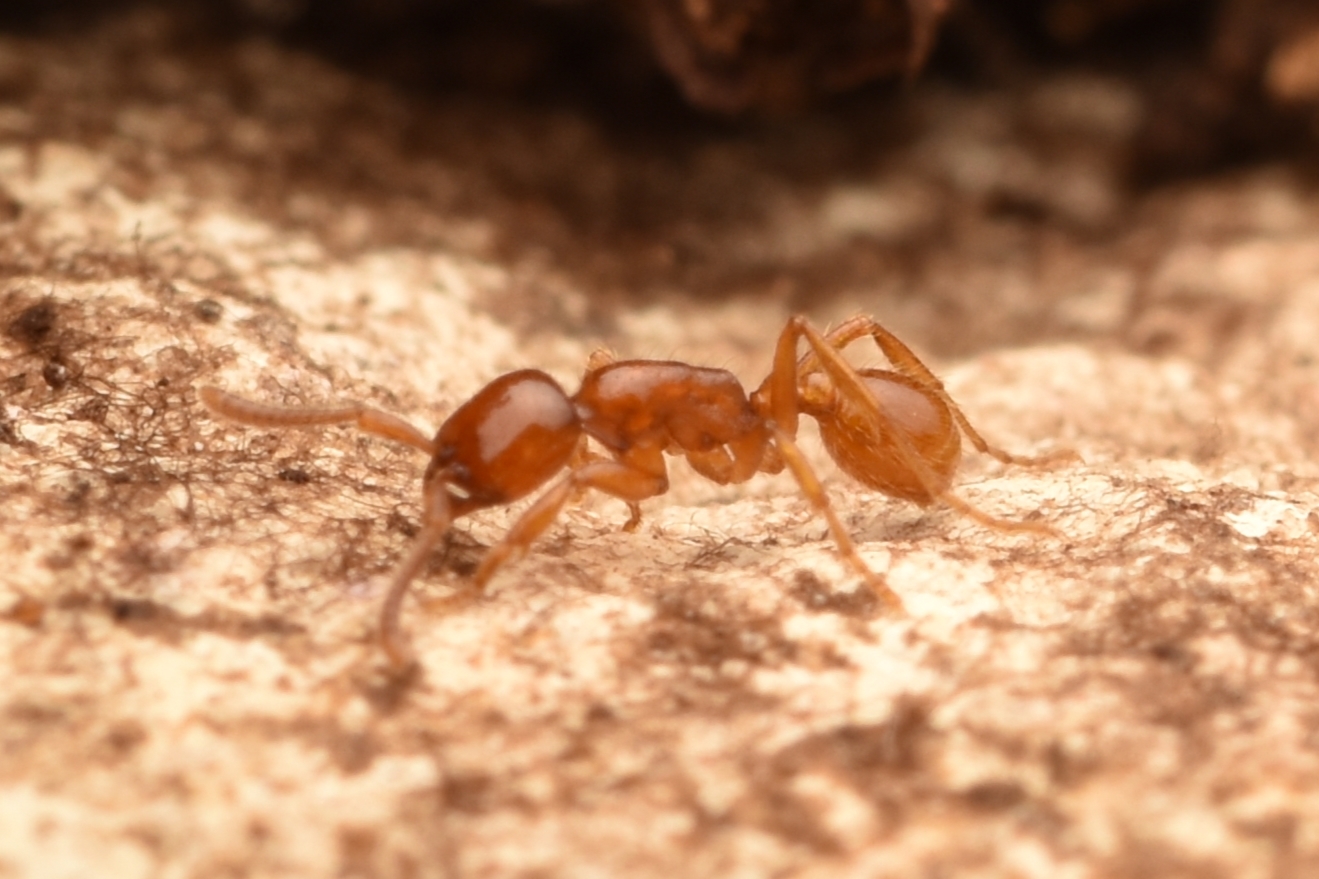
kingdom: Animalia
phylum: Arthropoda
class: Insecta
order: Hymenoptera
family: Formicidae
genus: Labidus
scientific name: Labidus coecus
